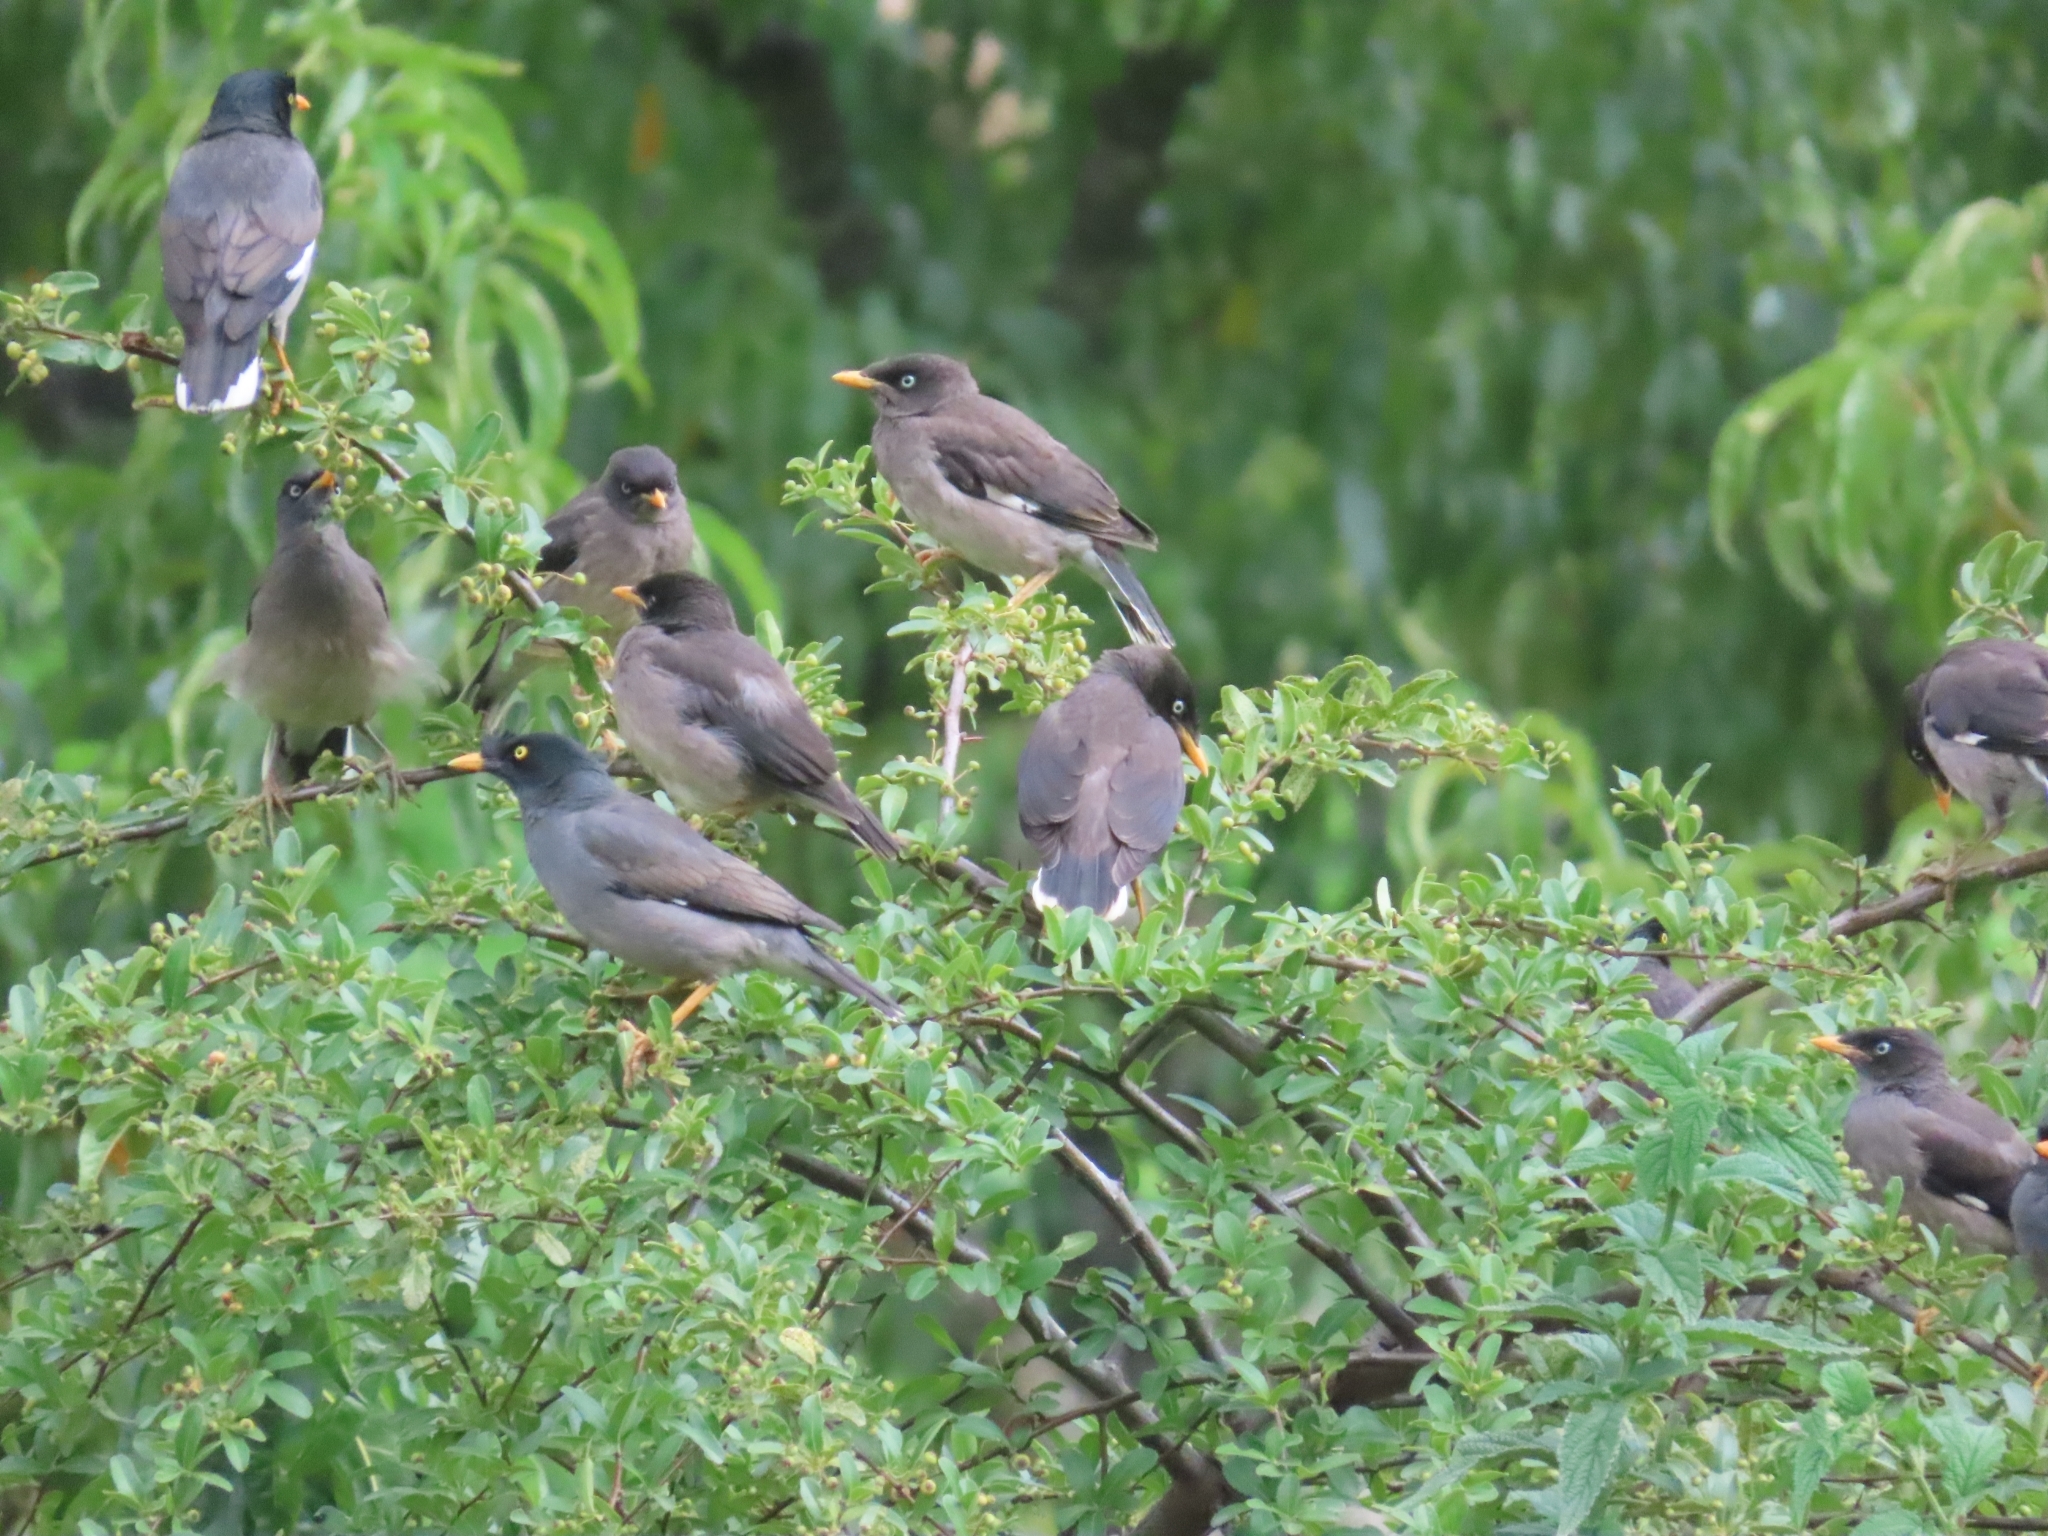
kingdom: Animalia
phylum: Chordata
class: Aves
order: Passeriformes
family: Sturnidae
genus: Acridotheres
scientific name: Acridotheres ginginianus
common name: Bank myna
